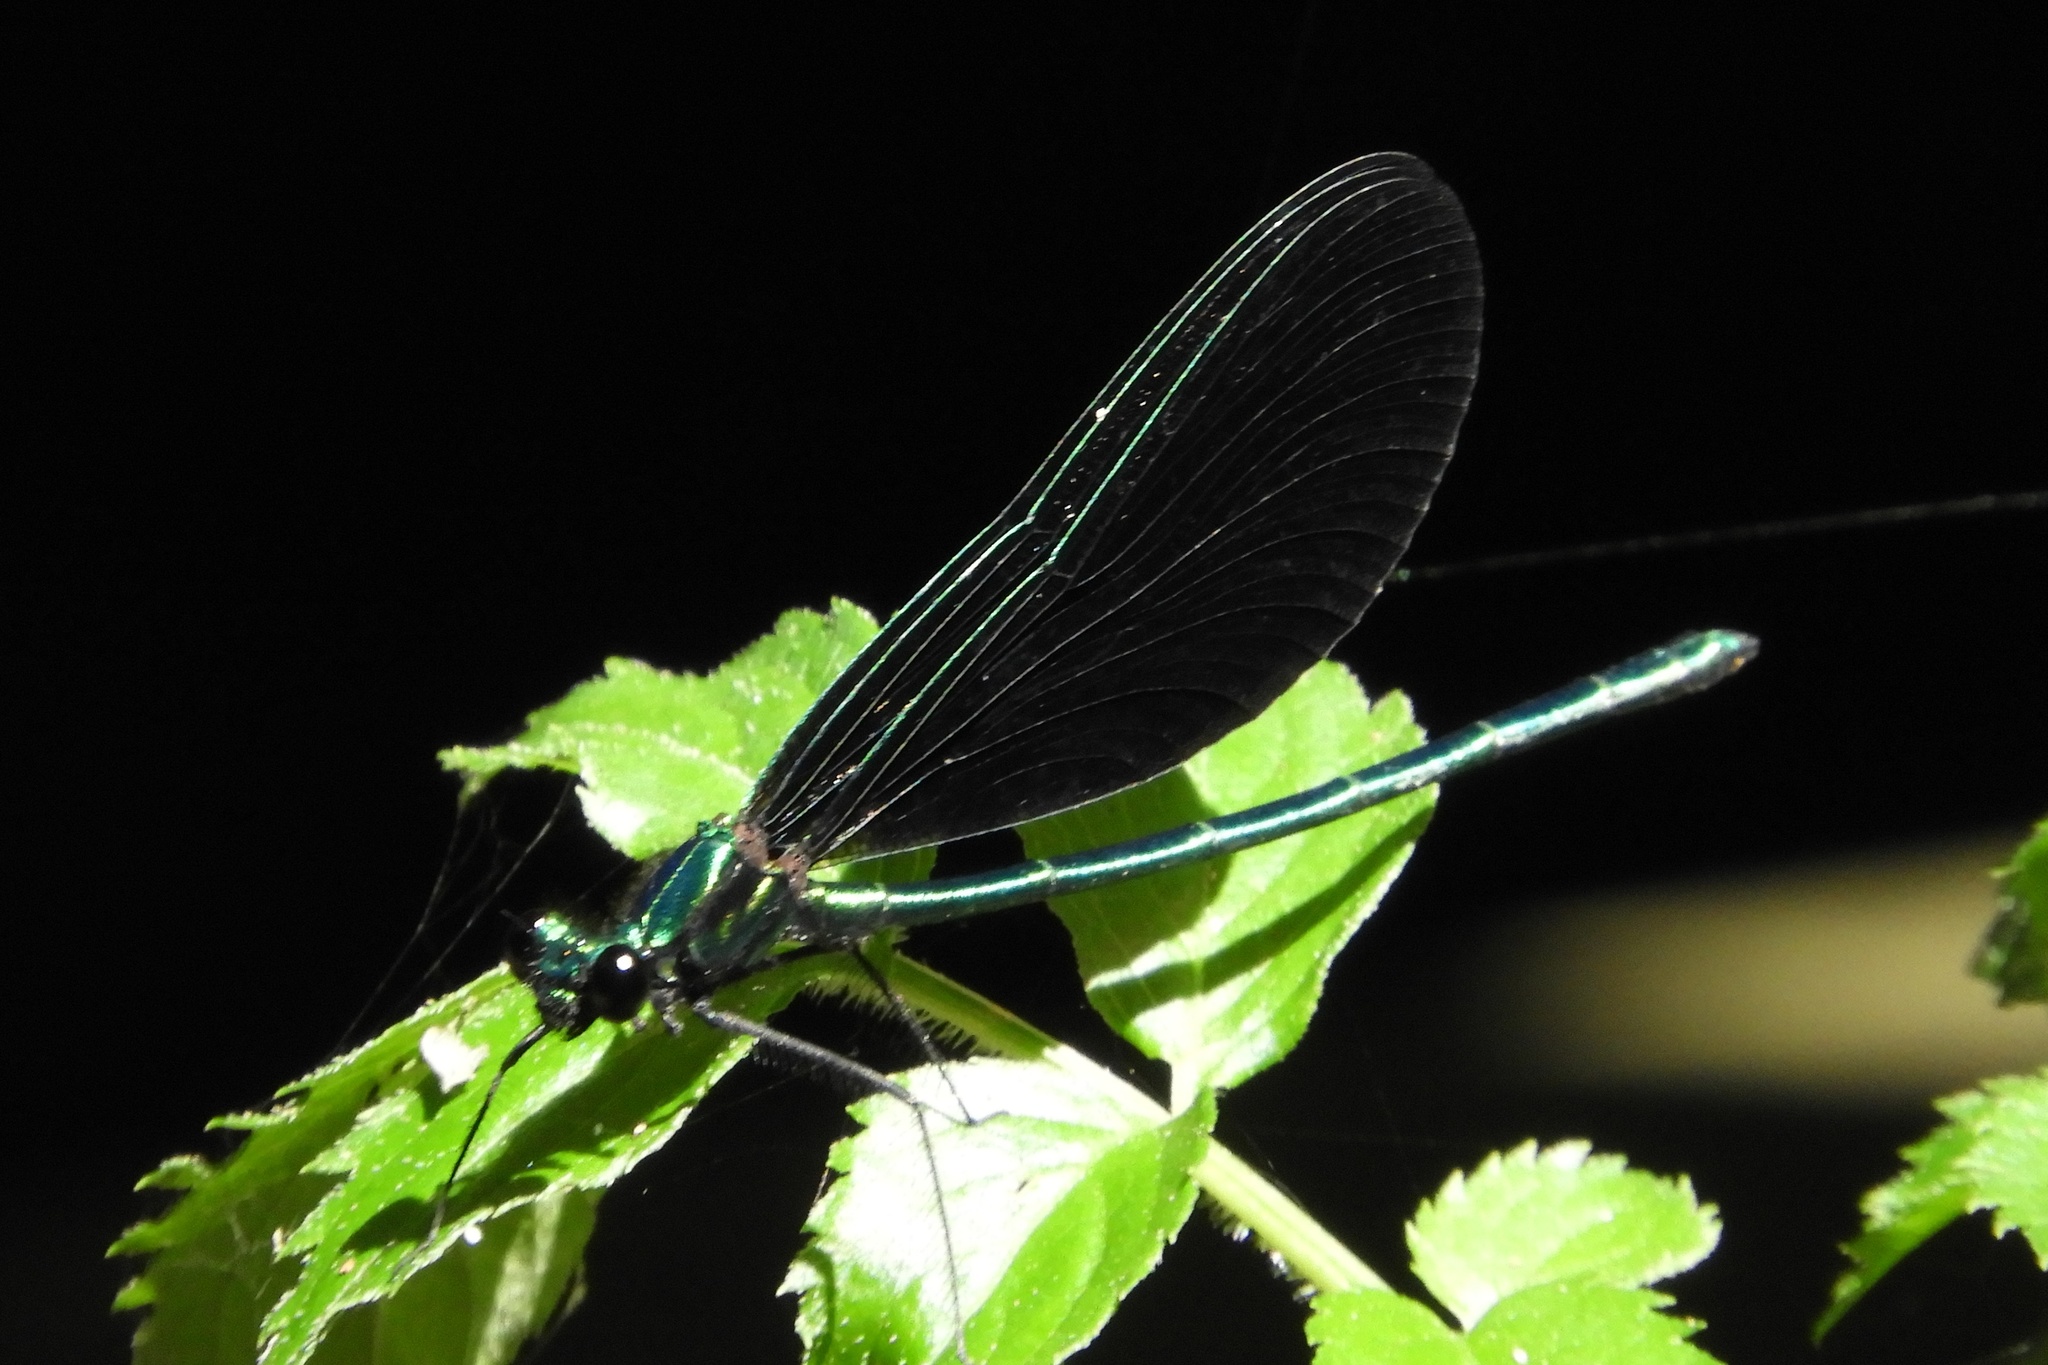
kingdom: Animalia
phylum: Arthropoda
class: Insecta
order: Odonata
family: Calopterygidae
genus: Calopteryx
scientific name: Calopteryx maculata
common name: Ebony jewelwing
